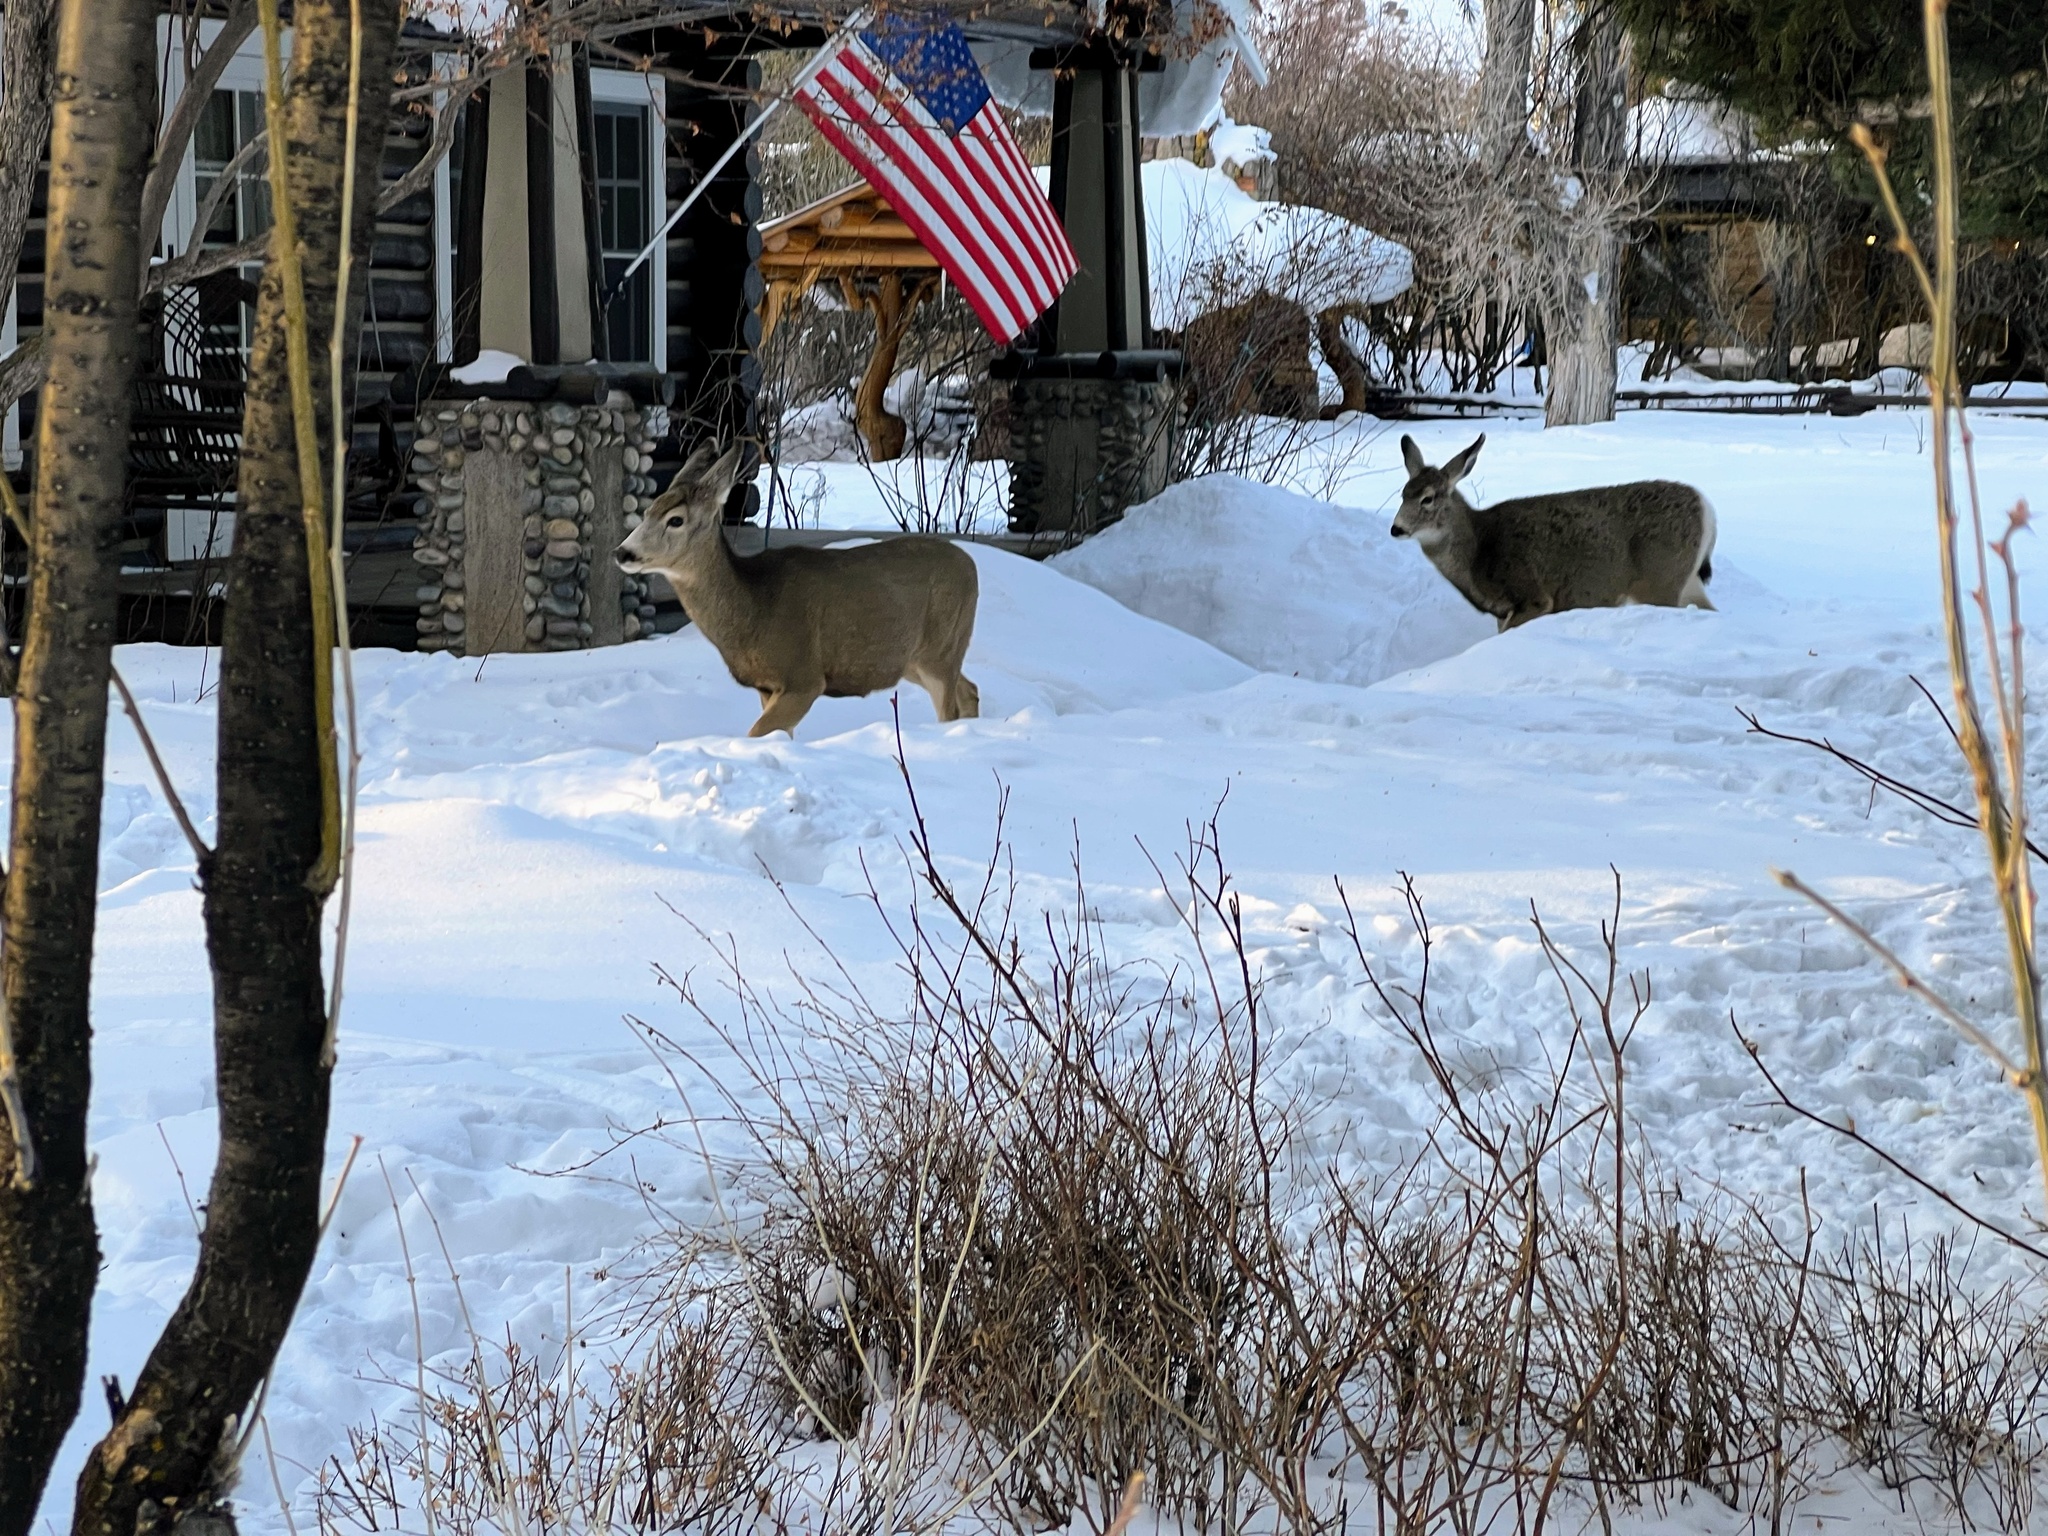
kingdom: Animalia
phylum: Chordata
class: Mammalia
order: Artiodactyla
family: Cervidae
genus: Odocoileus
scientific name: Odocoileus hemionus
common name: Mule deer
